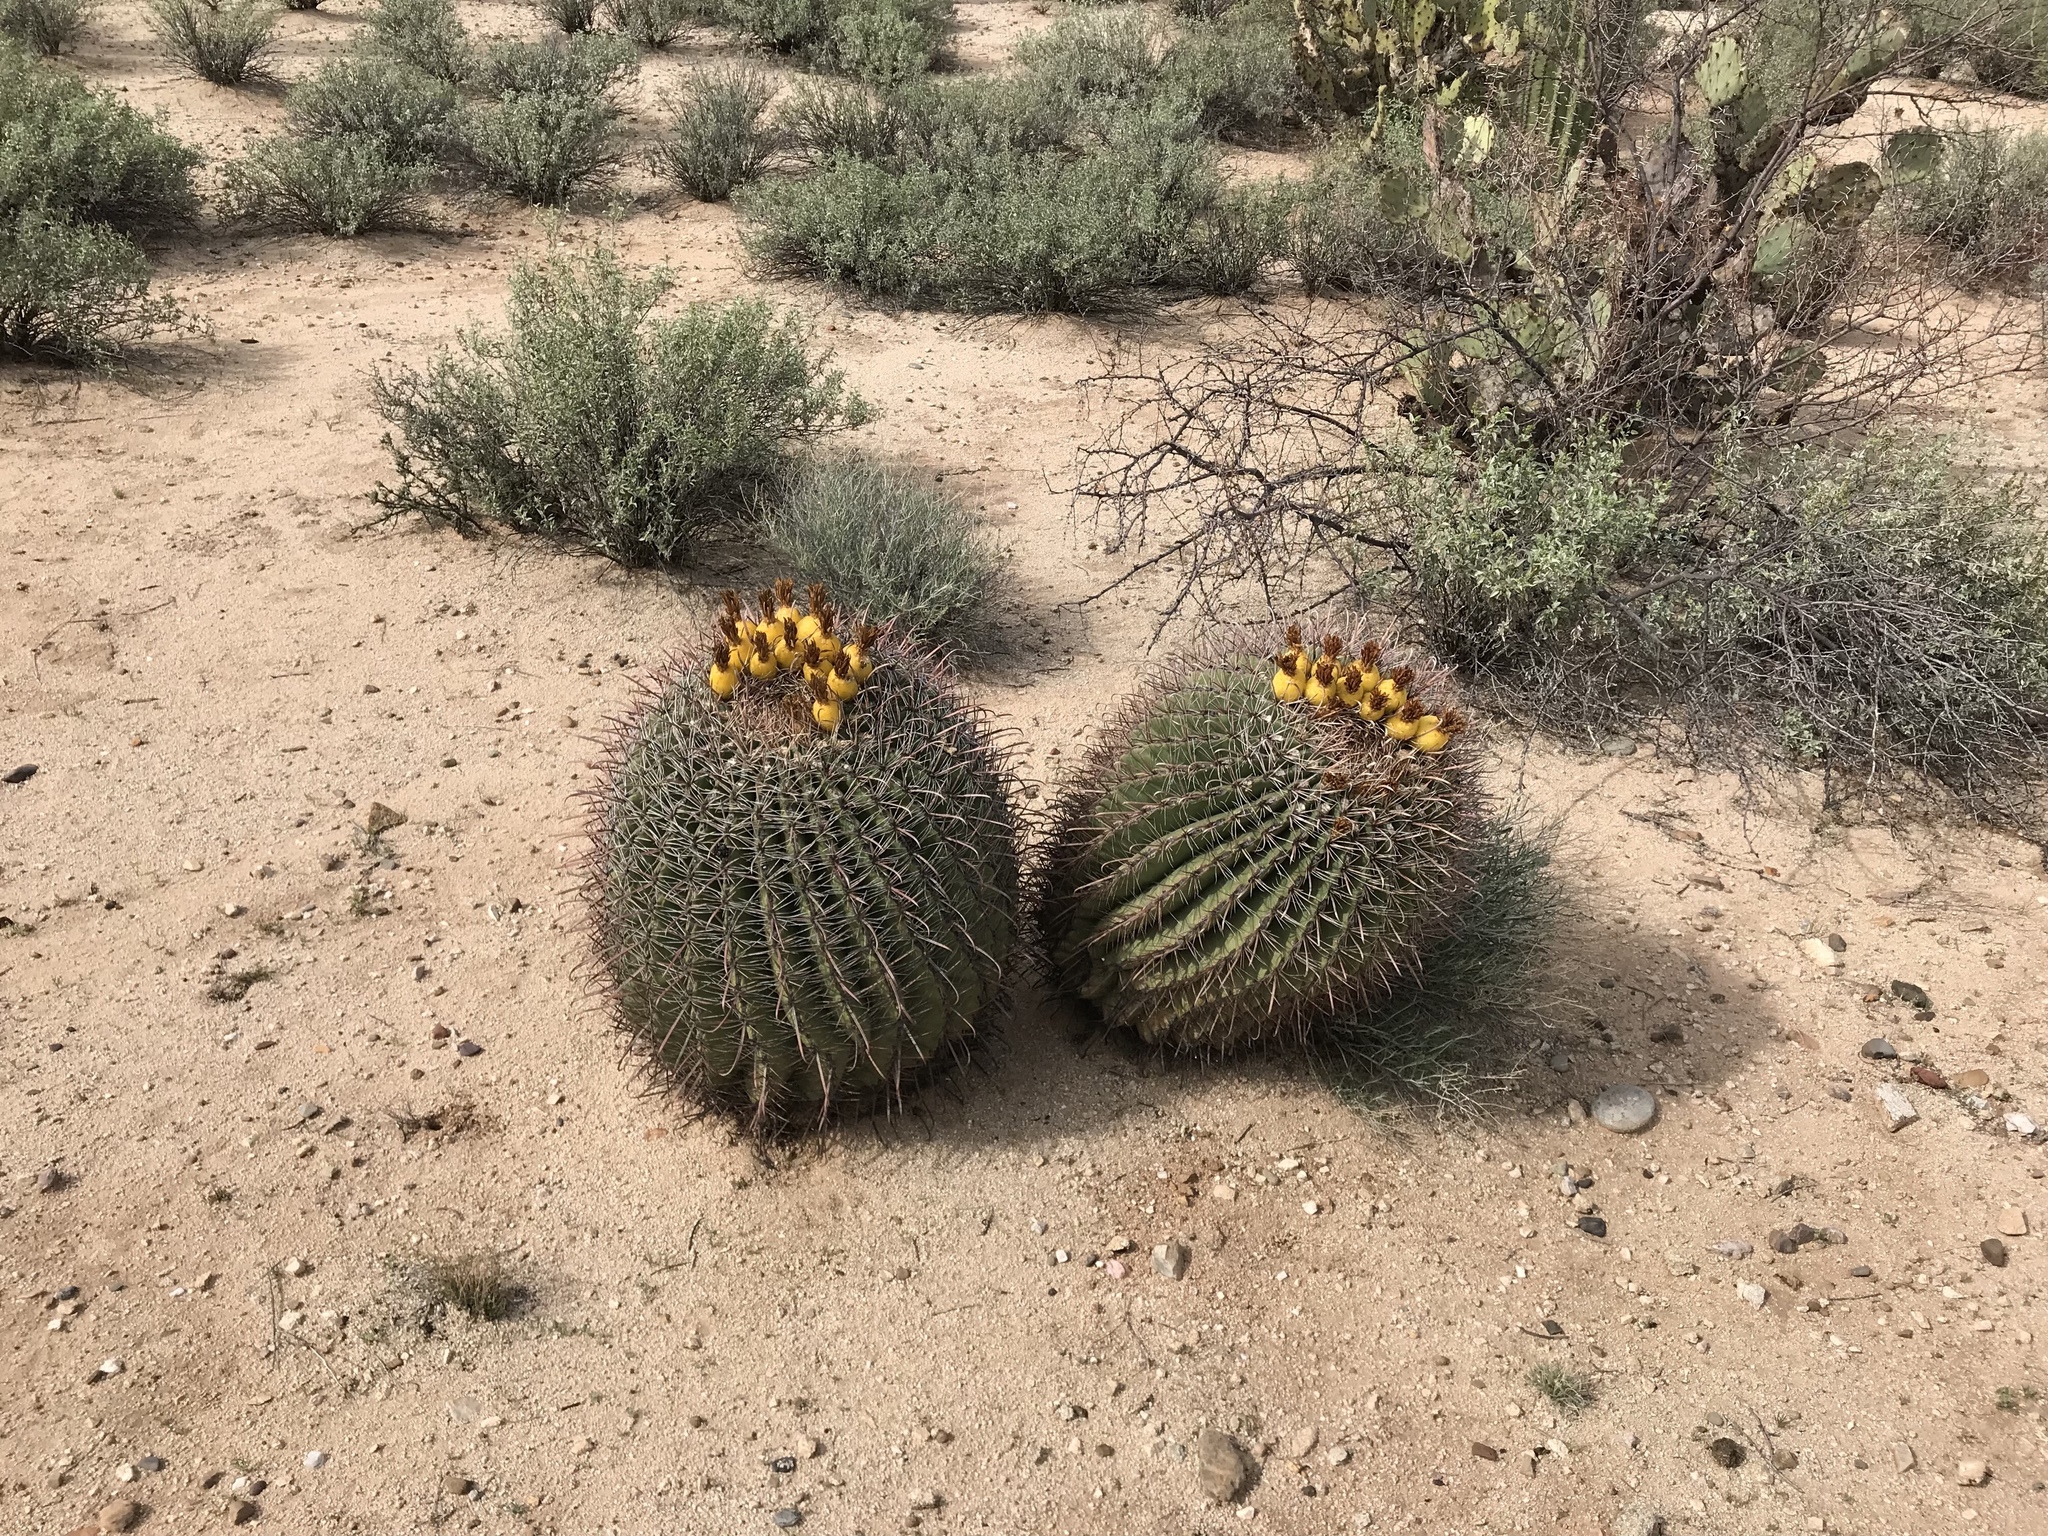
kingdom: Plantae
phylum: Tracheophyta
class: Magnoliopsida
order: Caryophyllales
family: Cactaceae
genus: Ferocactus
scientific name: Ferocactus wislizeni
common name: Candy barrel cactus
